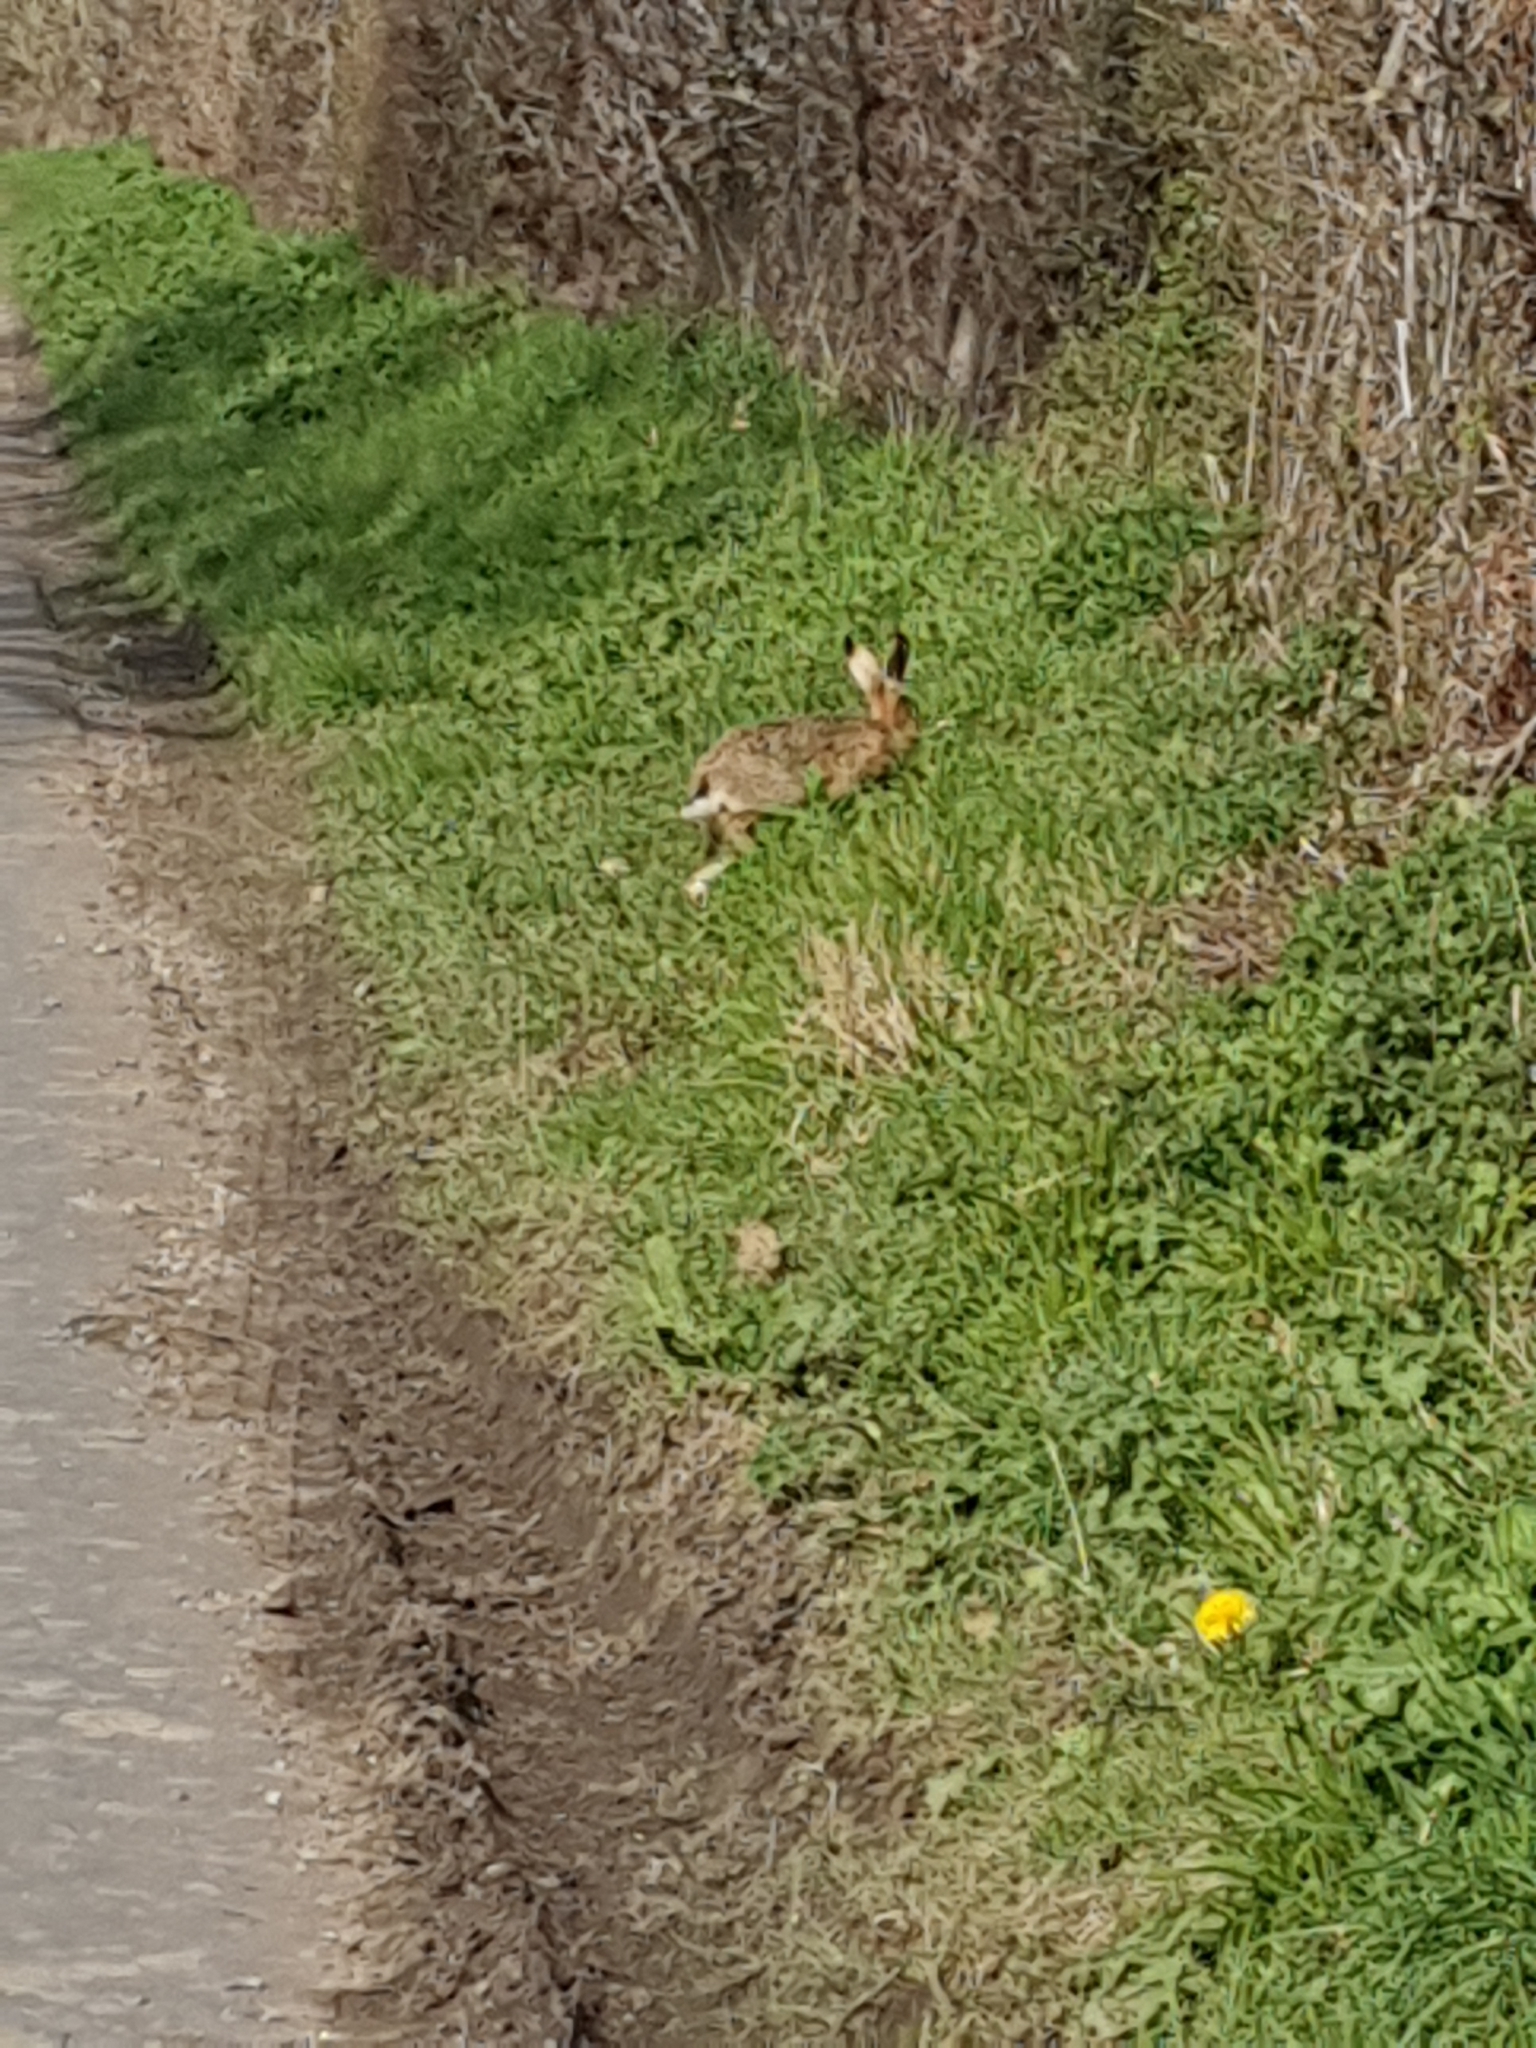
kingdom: Animalia
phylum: Chordata
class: Mammalia
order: Lagomorpha
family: Leporidae
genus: Lepus
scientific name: Lepus europaeus
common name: European hare
